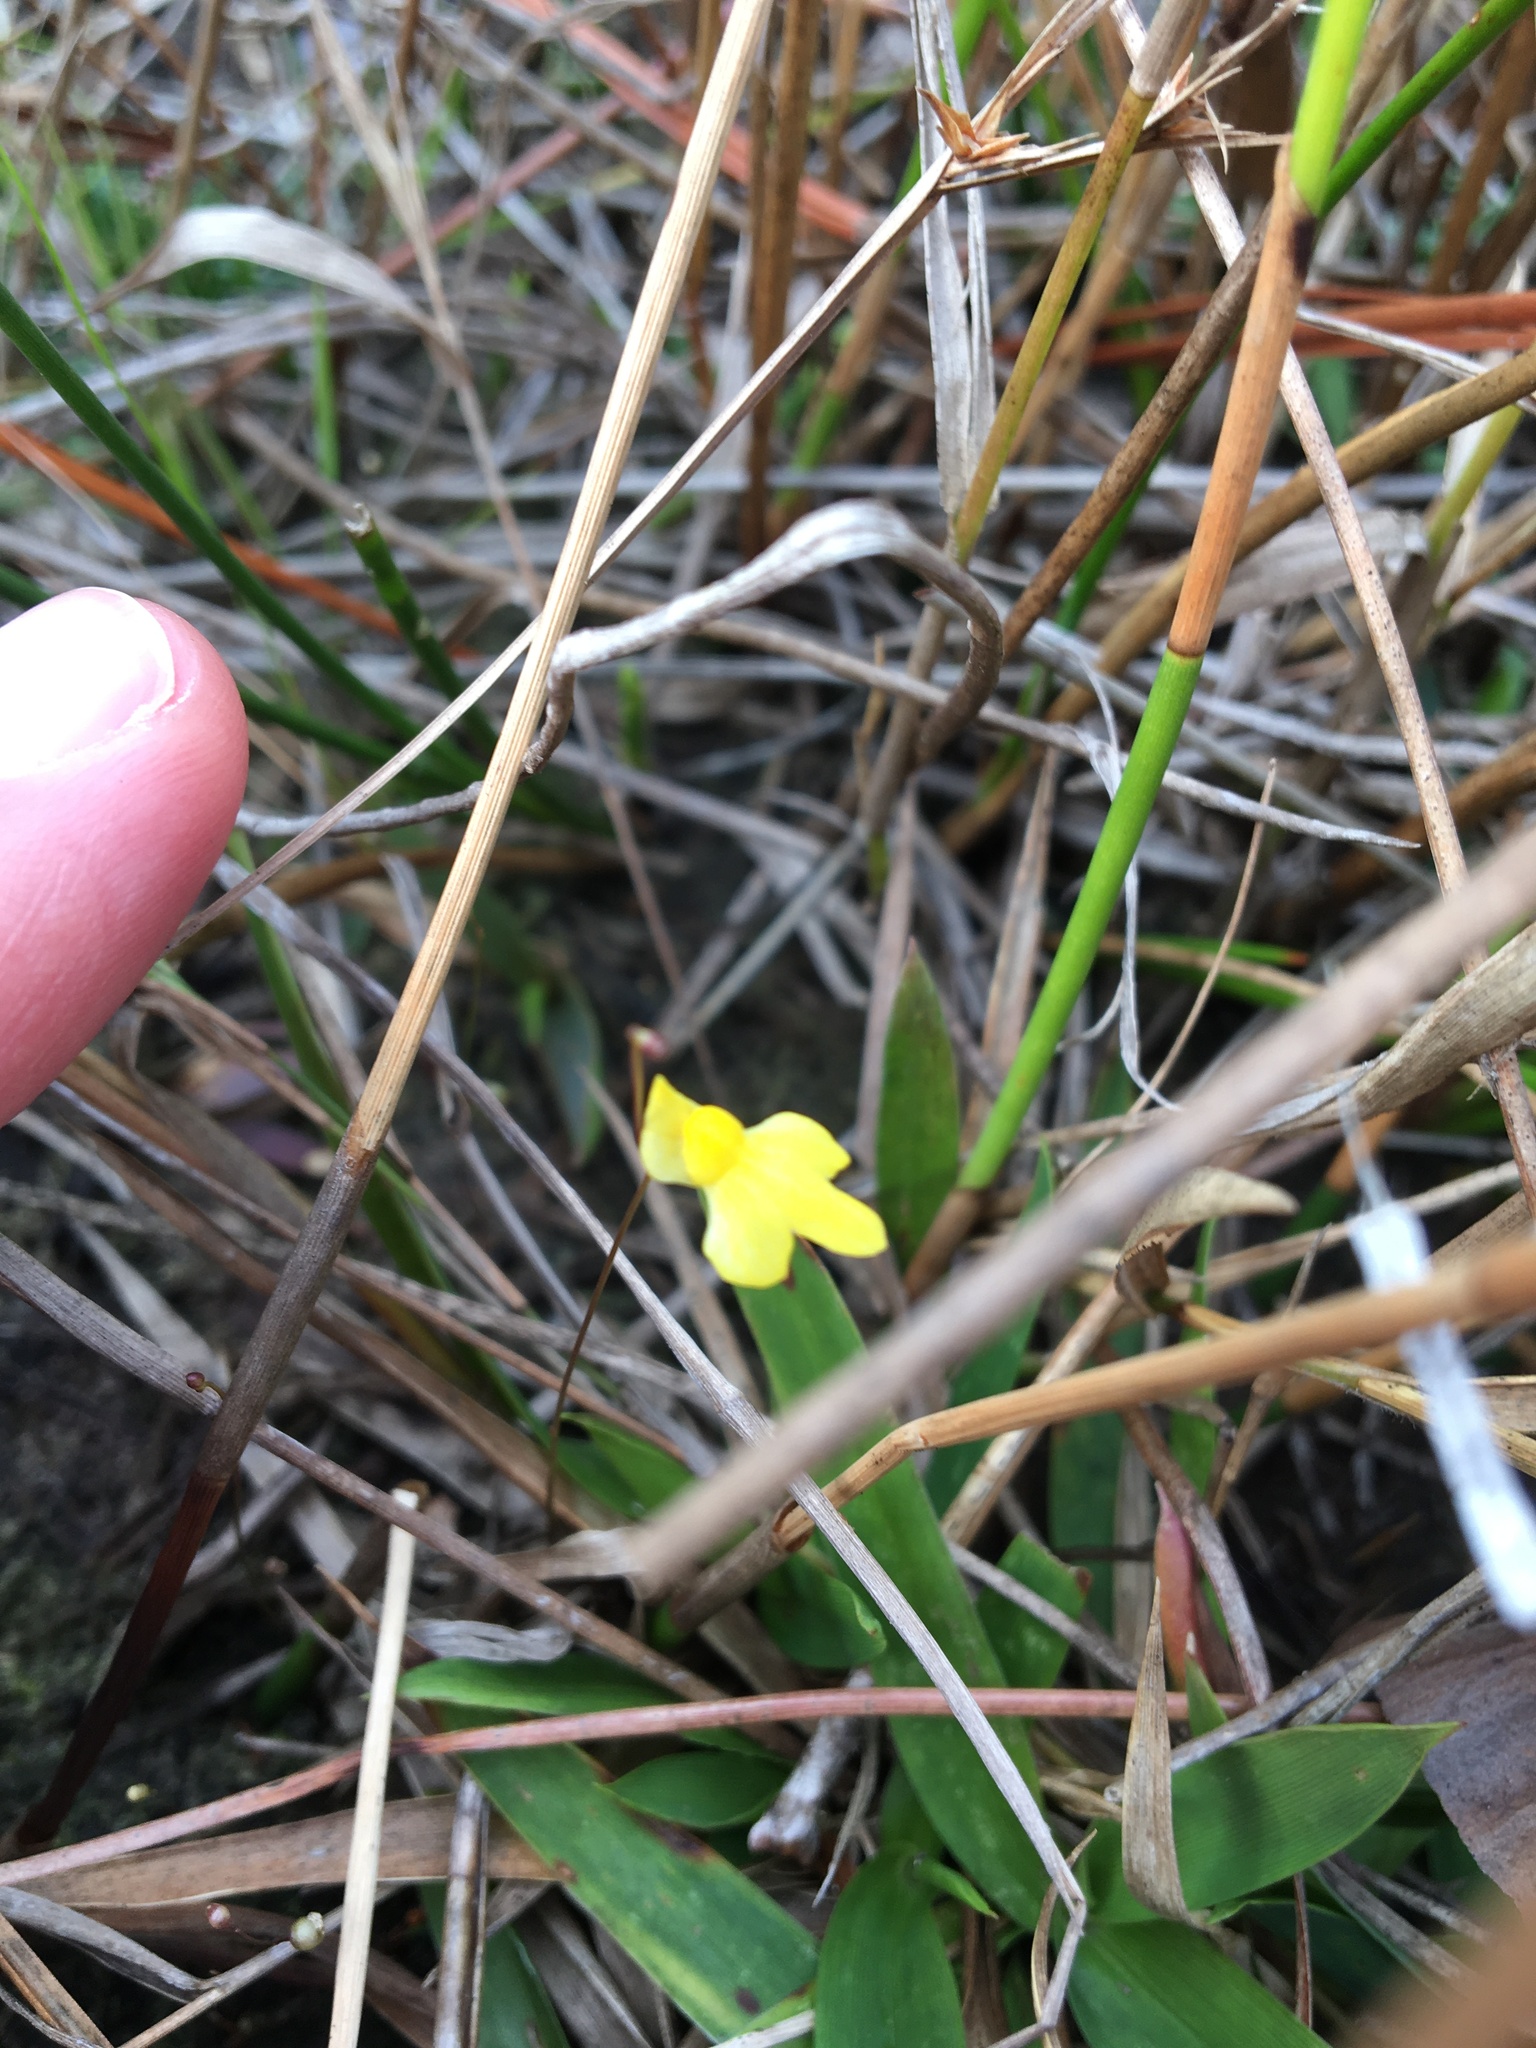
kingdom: Plantae
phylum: Tracheophyta
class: Magnoliopsida
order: Lamiales
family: Lentibulariaceae
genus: Utricularia
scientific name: Utricularia subulata
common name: Tiny bladderwort
